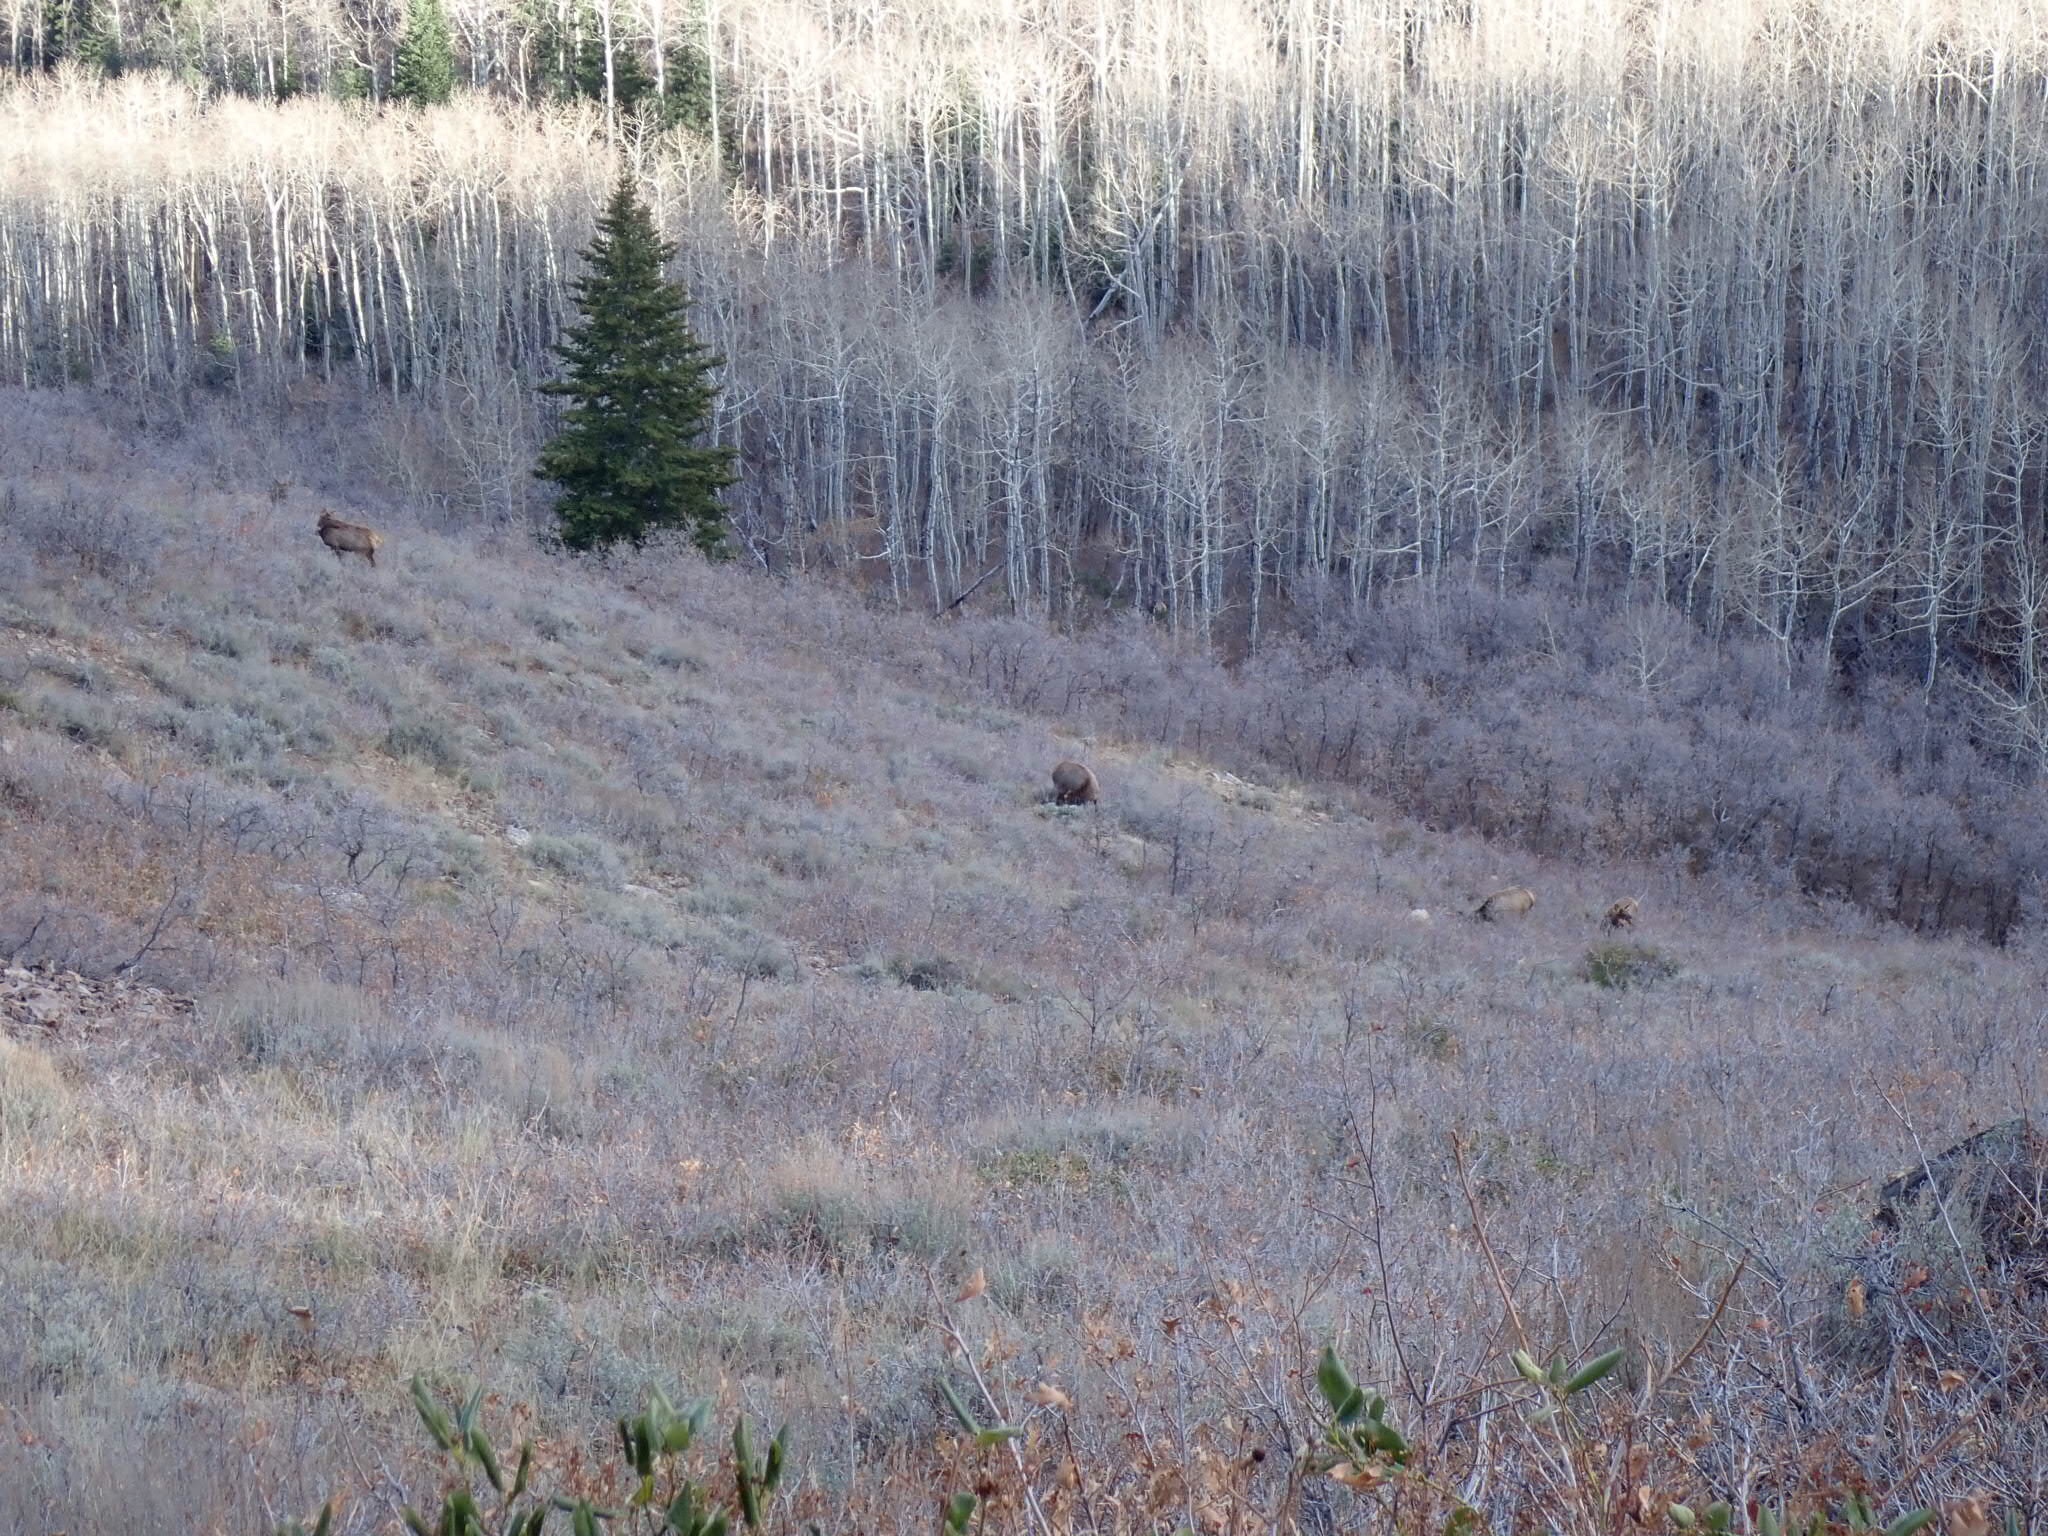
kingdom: Animalia
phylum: Chordata
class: Mammalia
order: Artiodactyla
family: Cervidae
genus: Cervus
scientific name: Cervus elaphus
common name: Red deer
